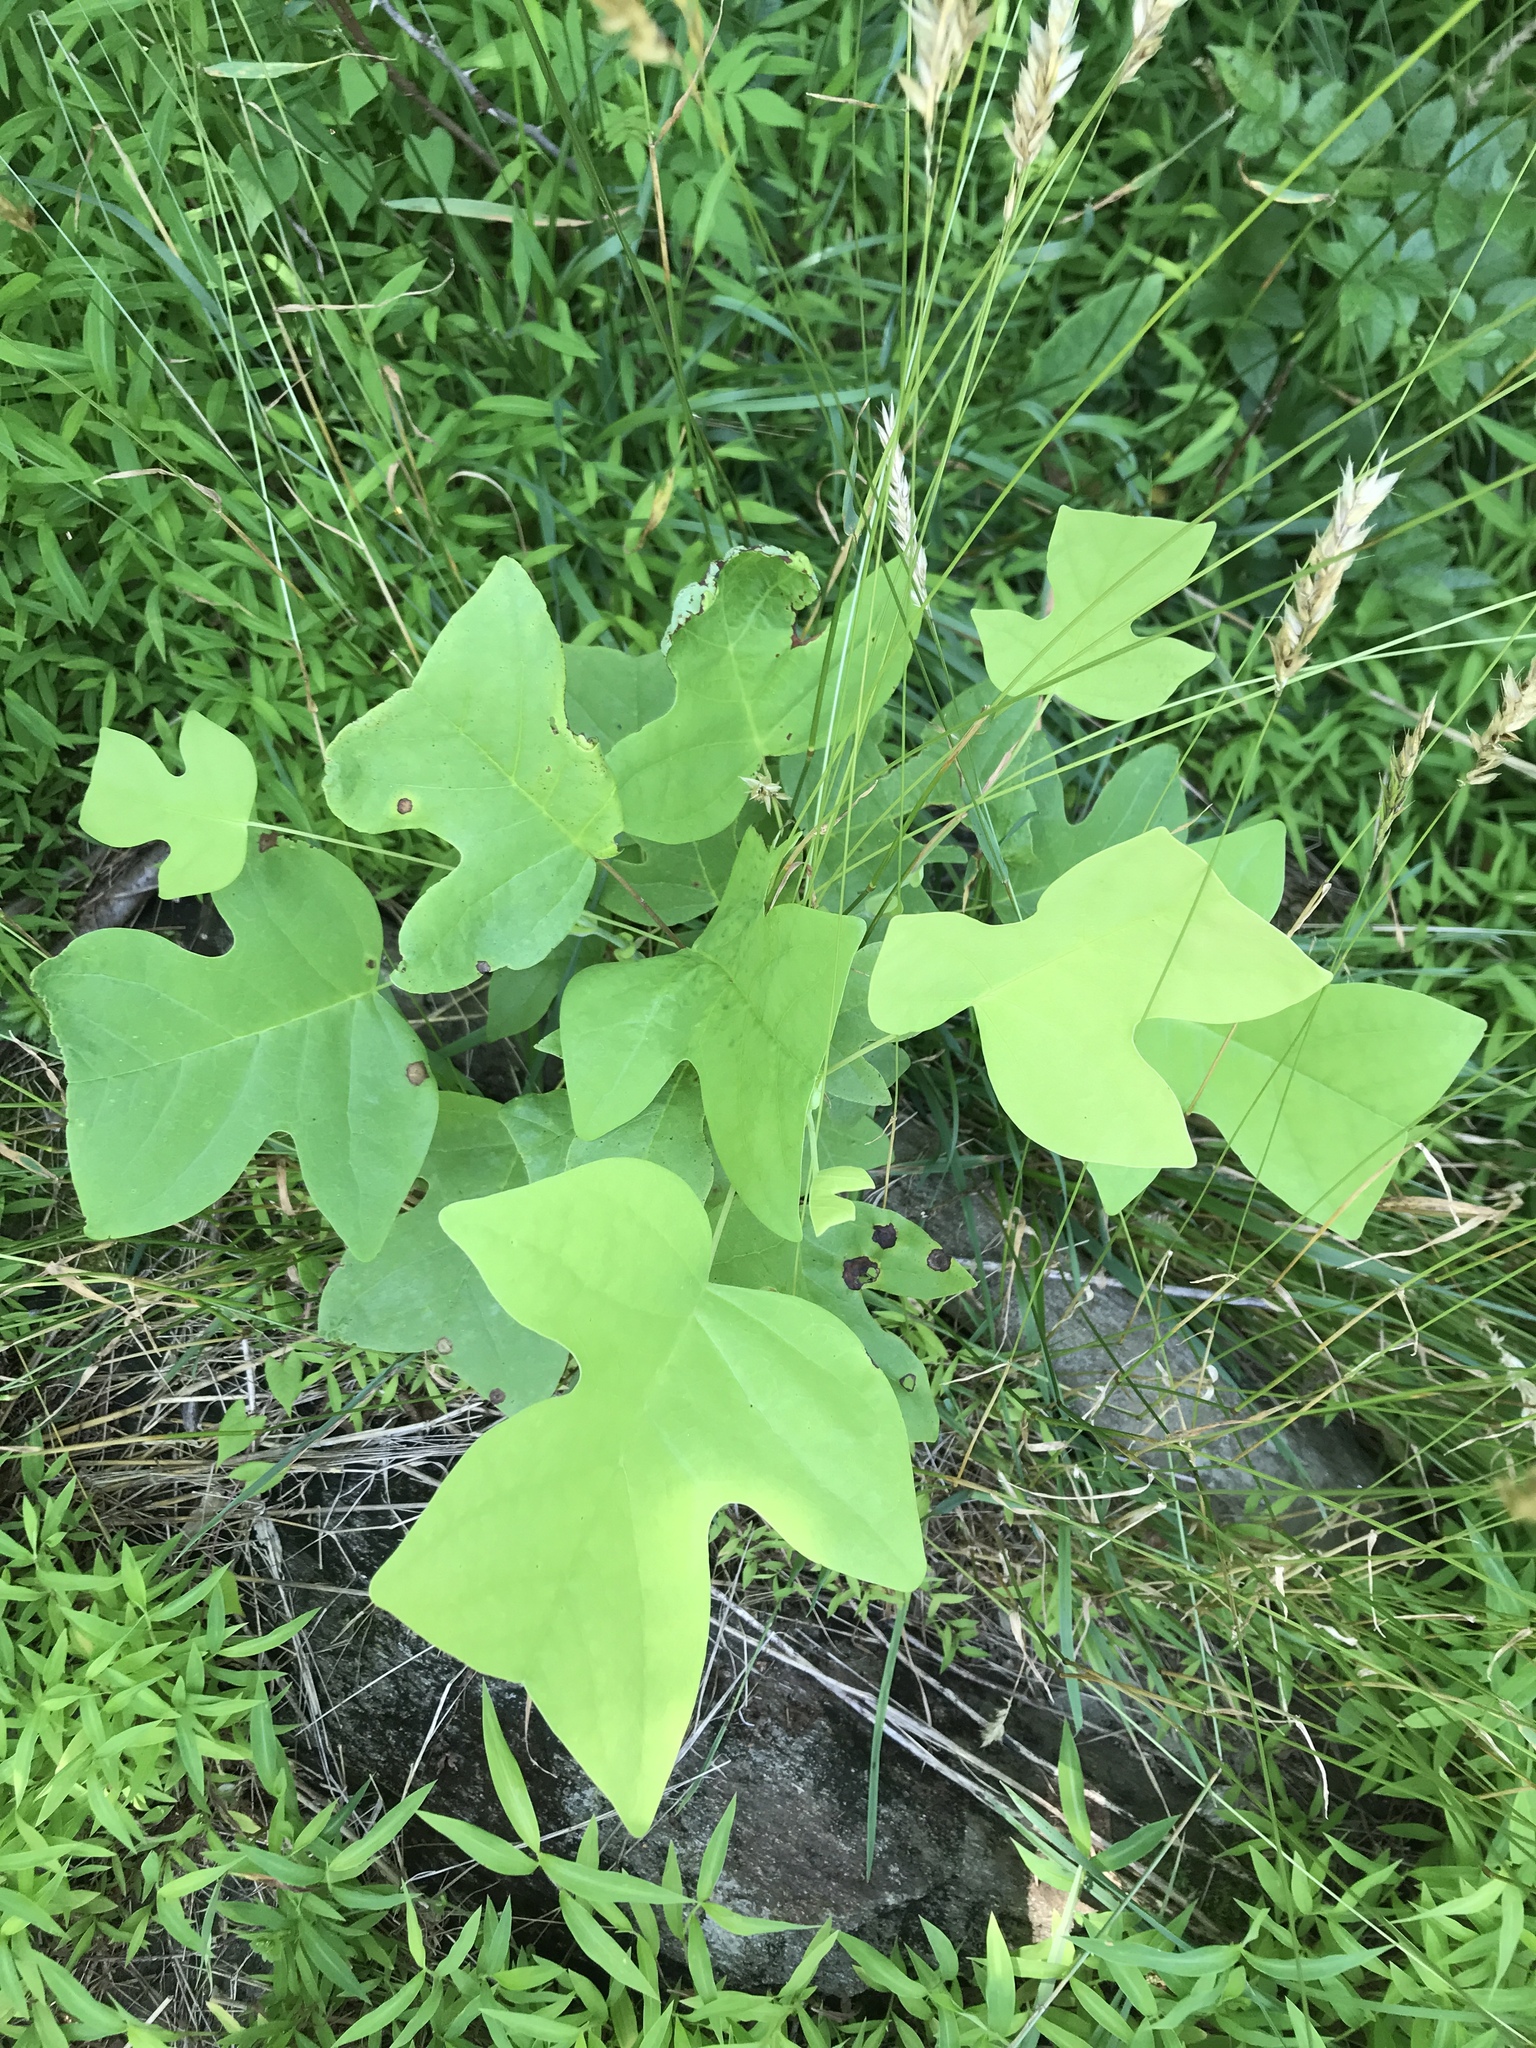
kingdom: Plantae
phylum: Tracheophyta
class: Magnoliopsida
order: Magnoliales
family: Magnoliaceae
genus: Liriodendron
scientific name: Liriodendron tulipifera
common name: Tulip tree
